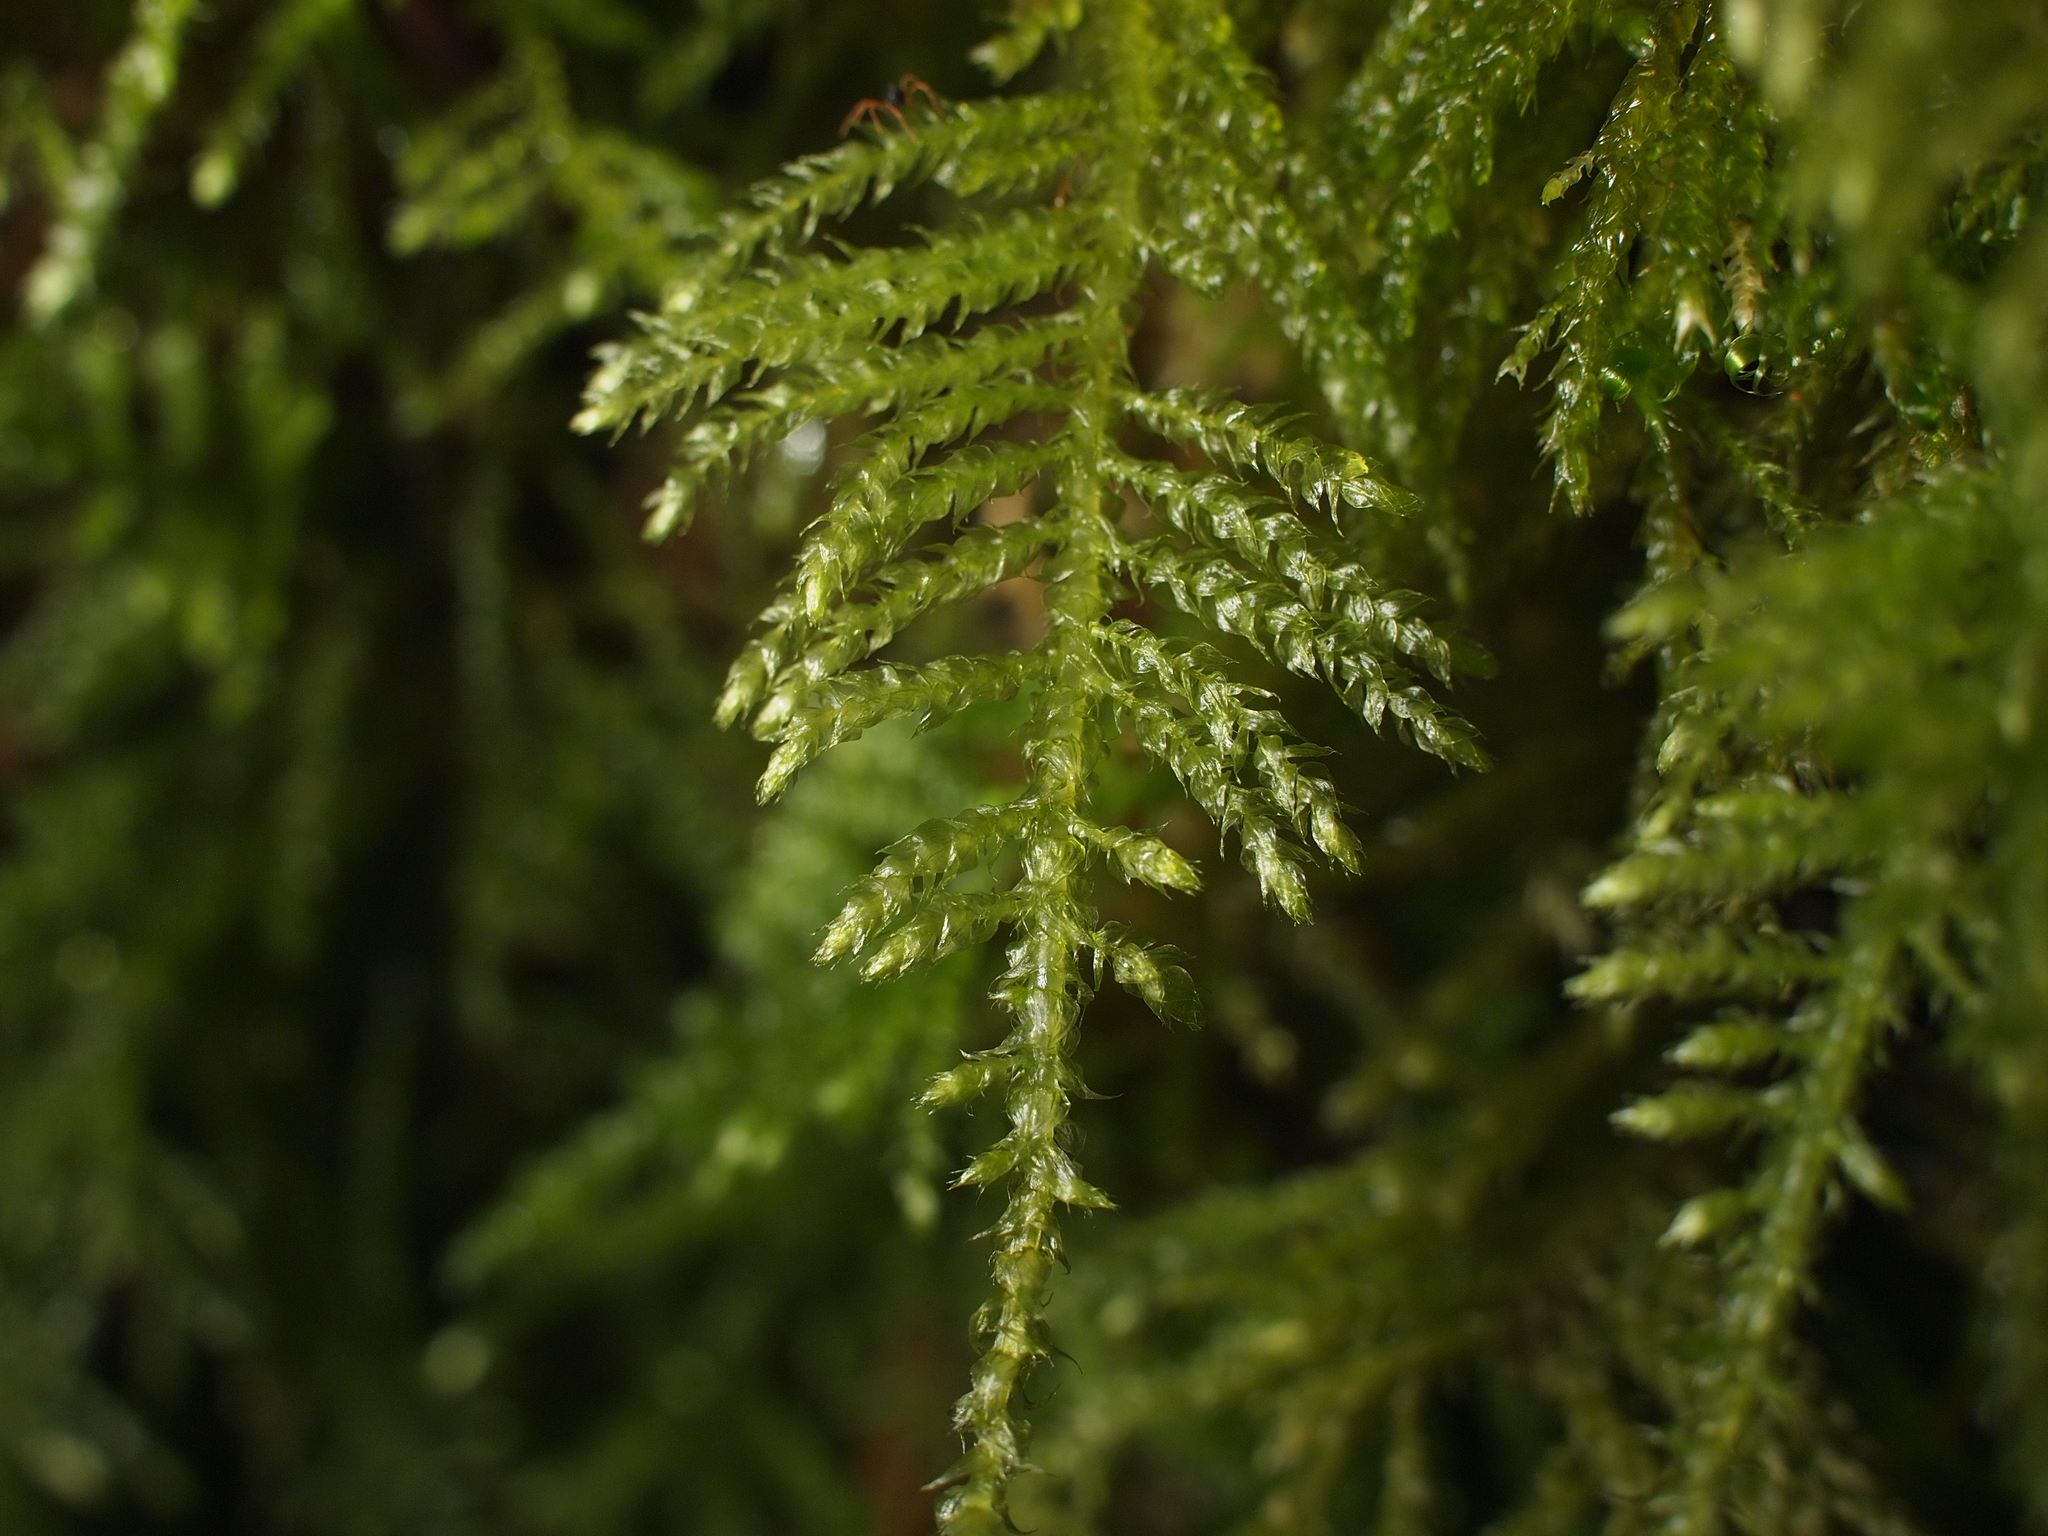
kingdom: Plantae
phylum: Bryophyta
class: Bryopsida
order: Hypnales
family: Brachytheciaceae
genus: Kindbergia
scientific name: Kindbergia praelonga
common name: Slender beaked moss
